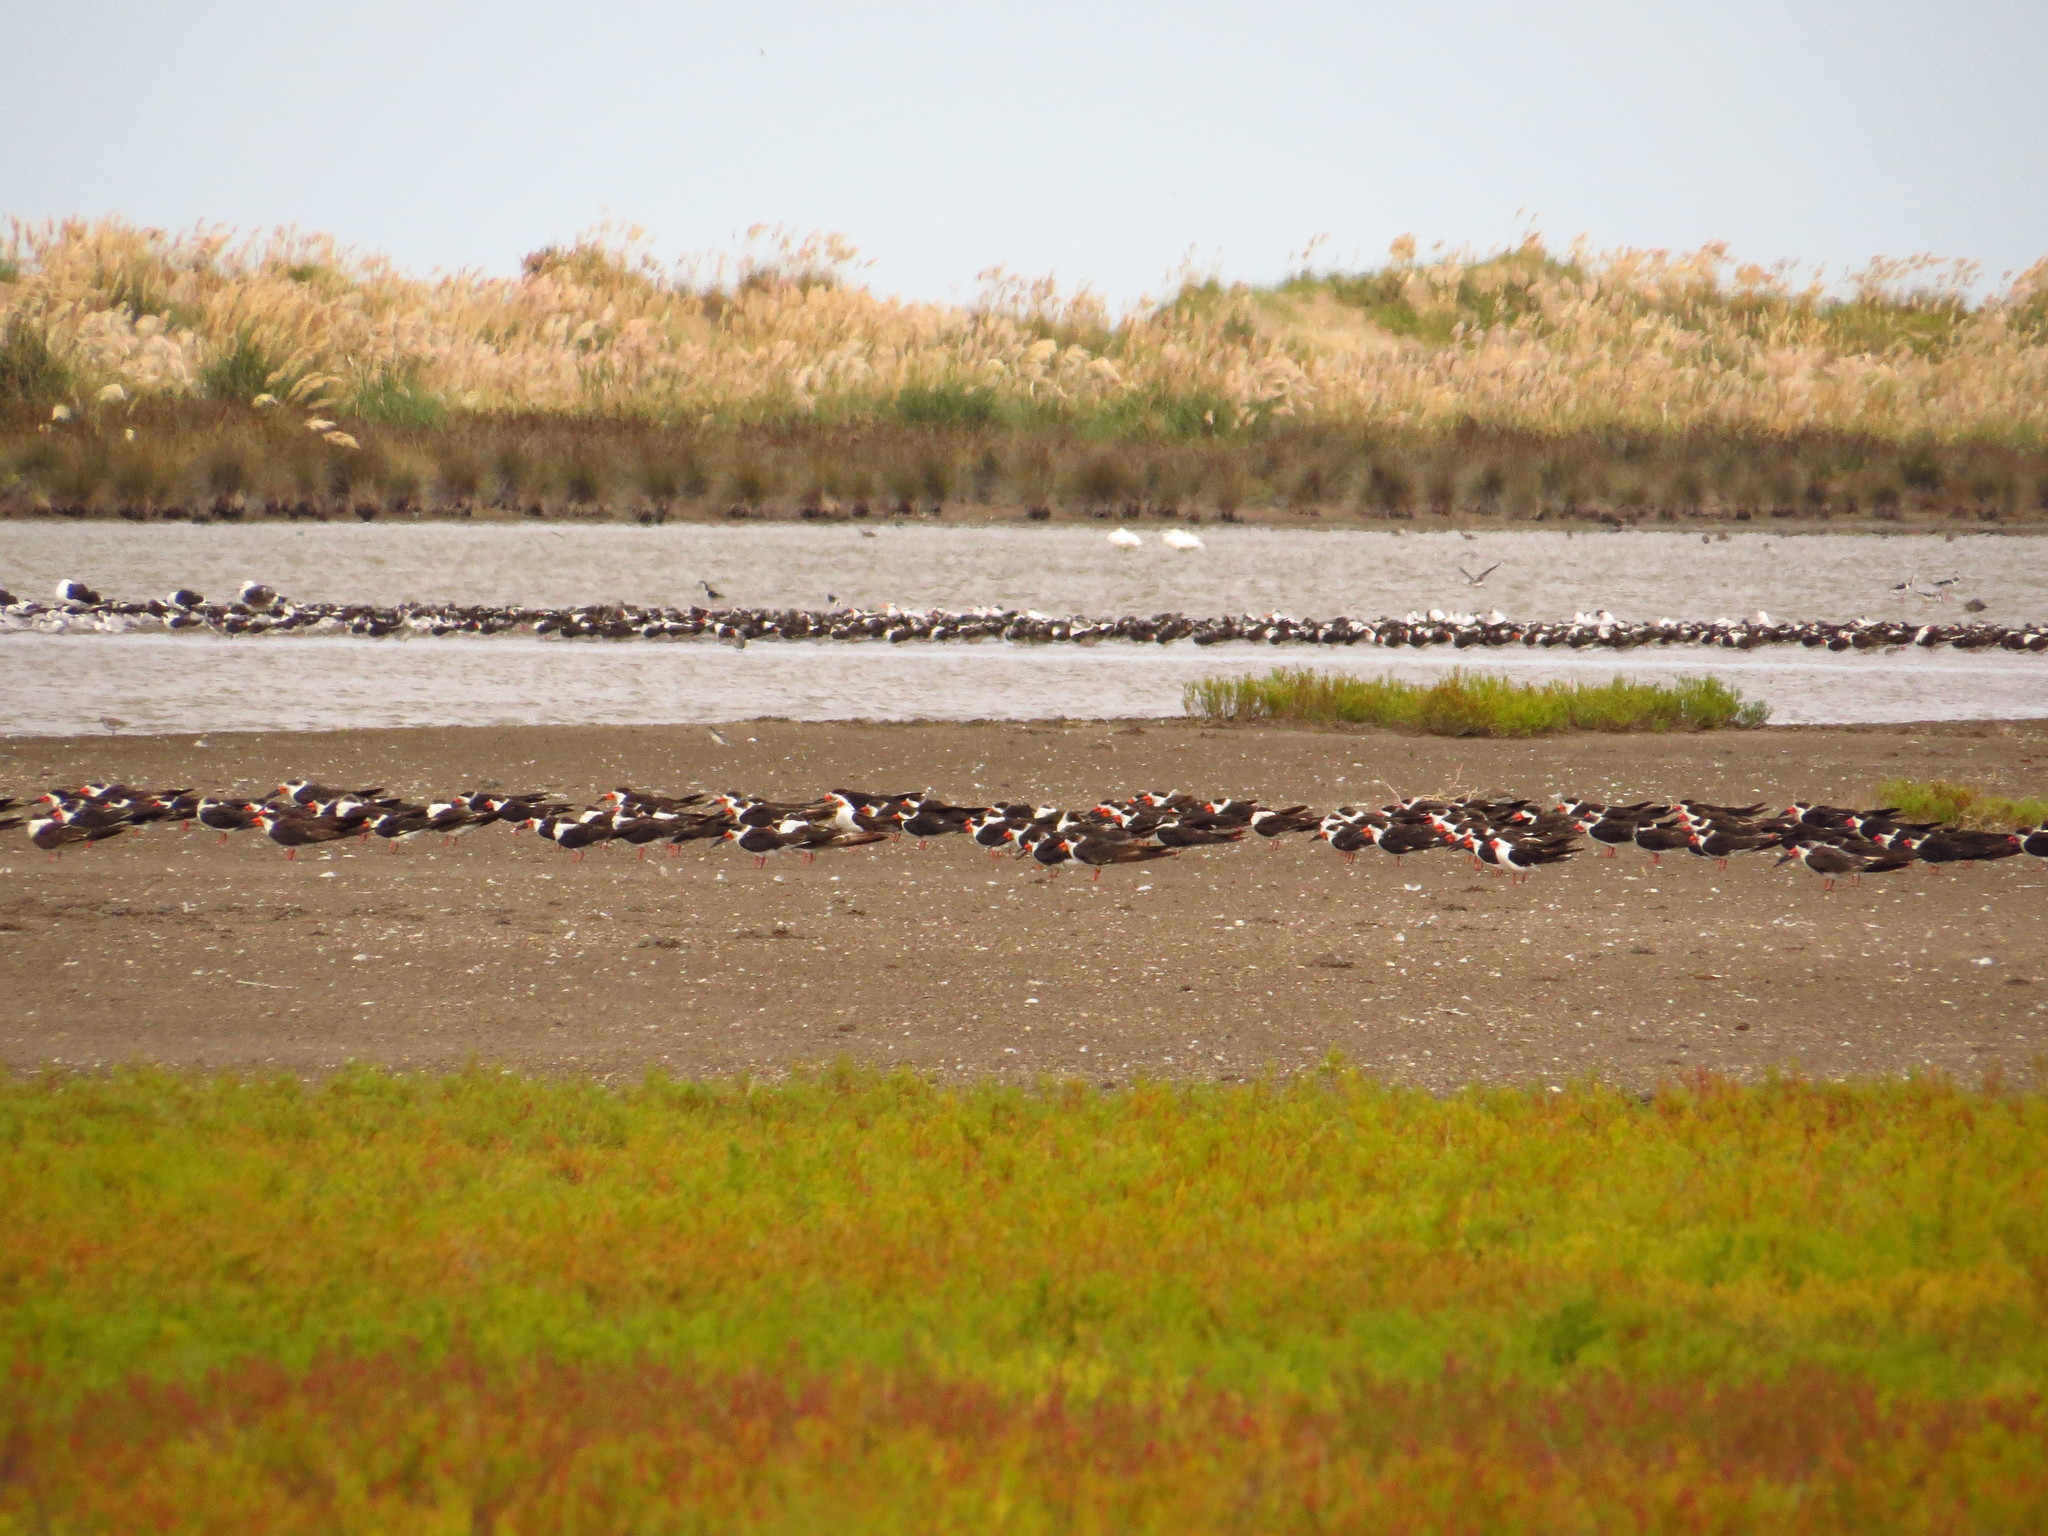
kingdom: Animalia
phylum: Chordata
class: Aves
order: Charadriiformes
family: Laridae
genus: Rynchops
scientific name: Rynchops niger
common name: Black skimmer
